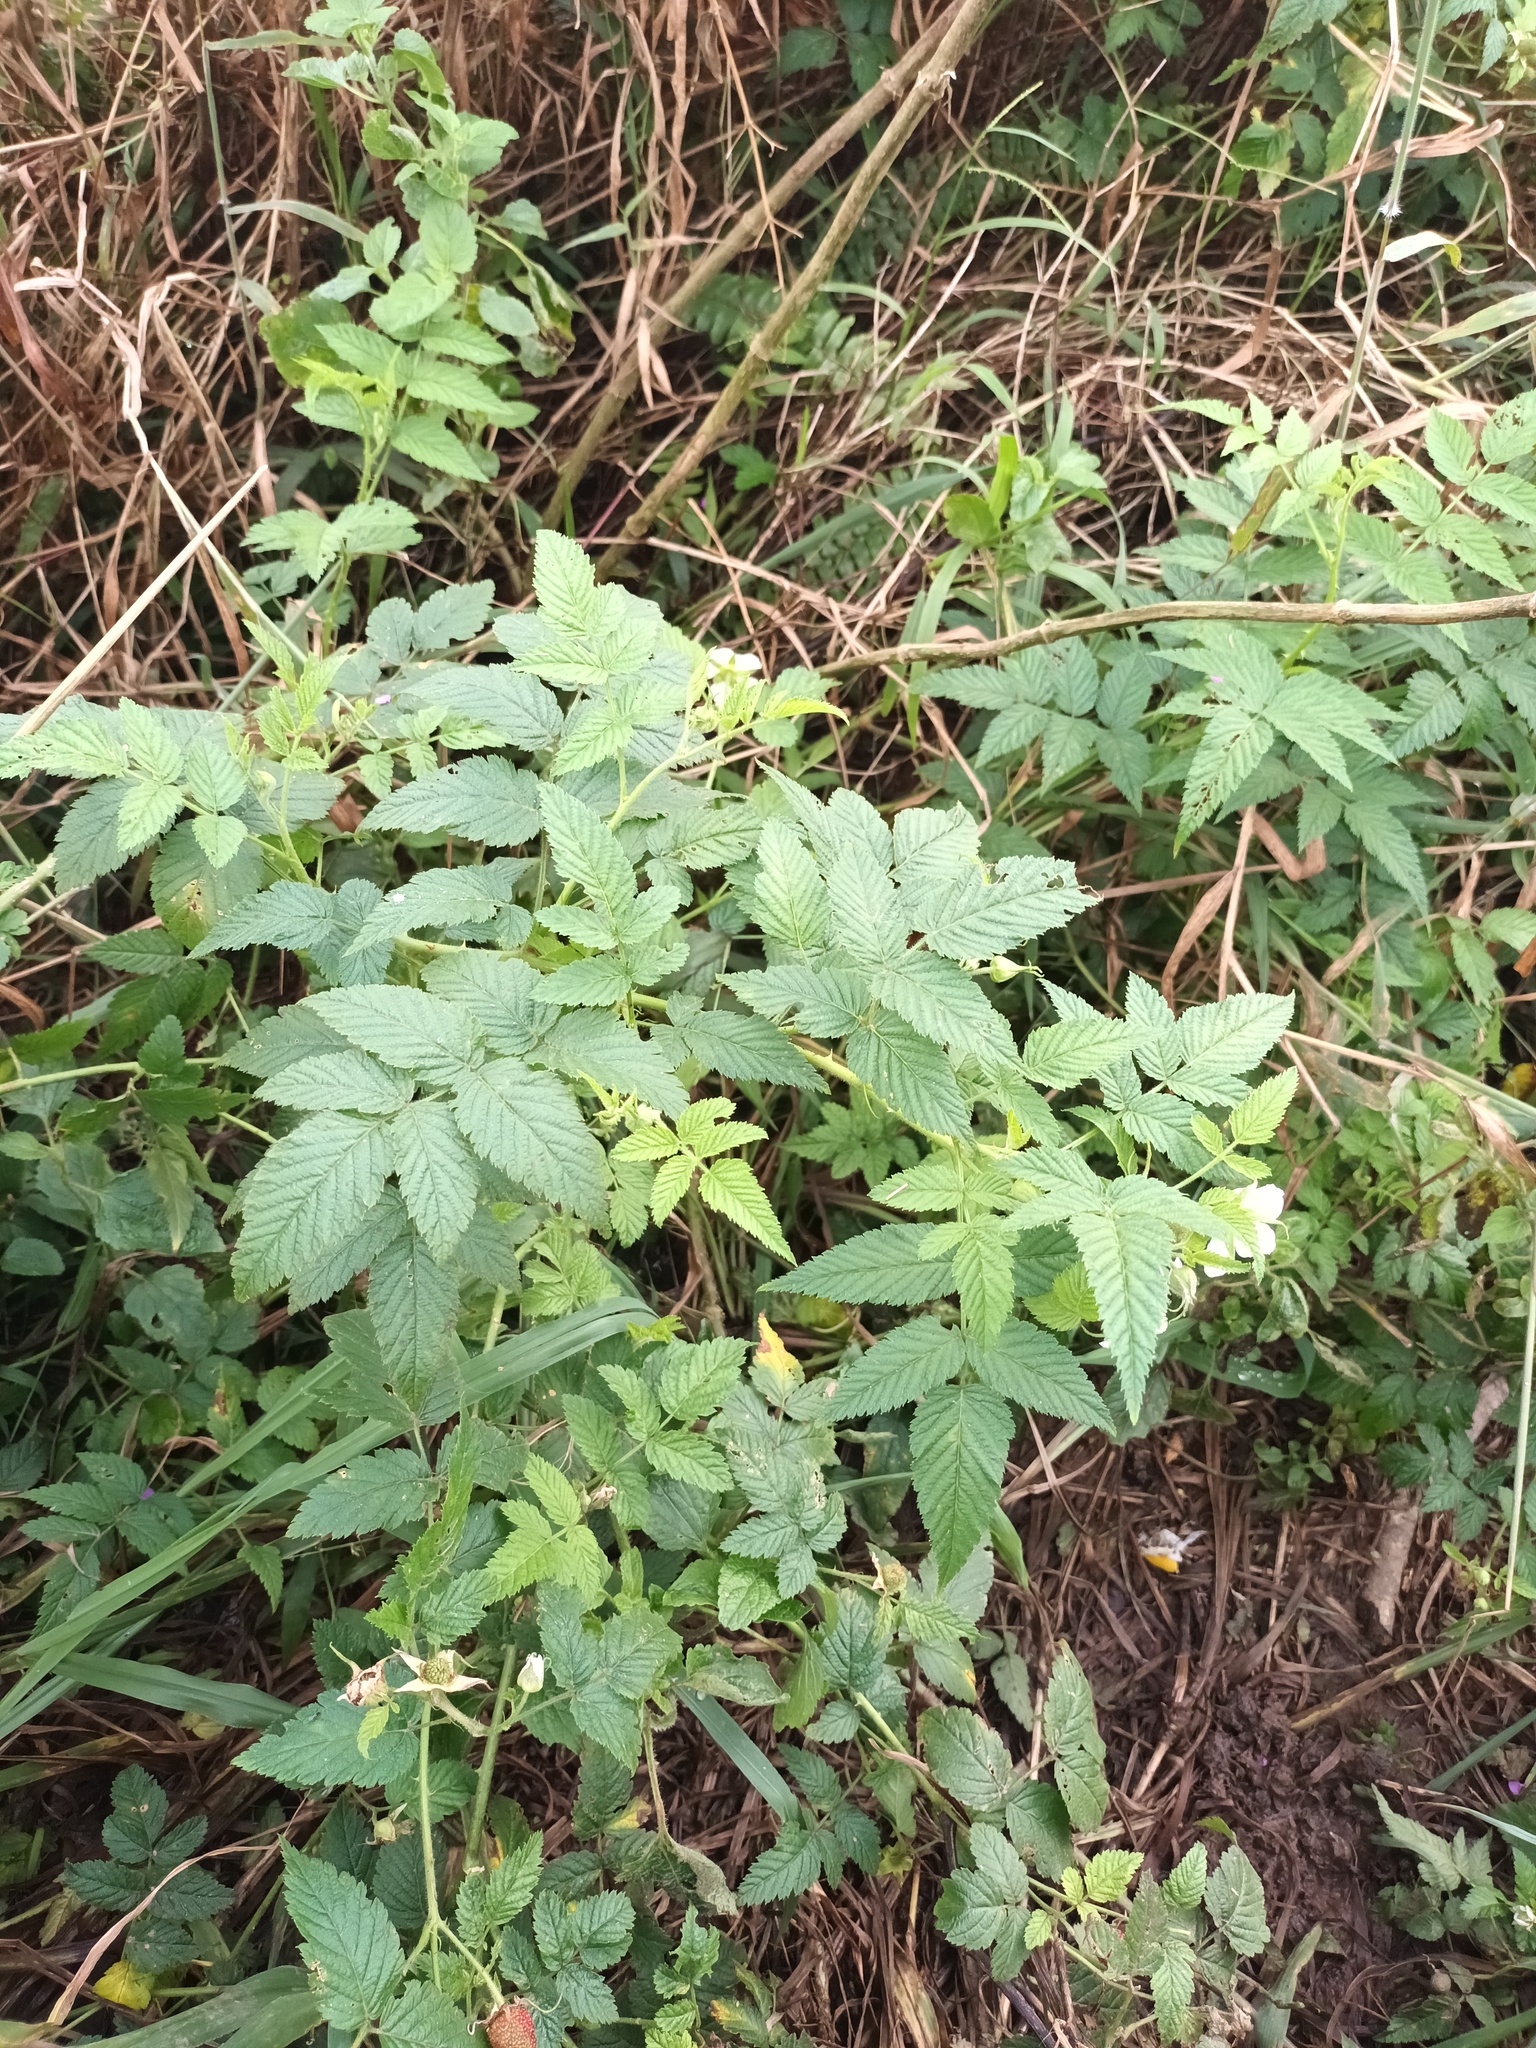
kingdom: Plantae
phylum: Tracheophyta
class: Magnoliopsida
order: Rosales
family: Rosaceae
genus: Rubus
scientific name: Rubus rosifolius
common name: Roseleaf raspberry
